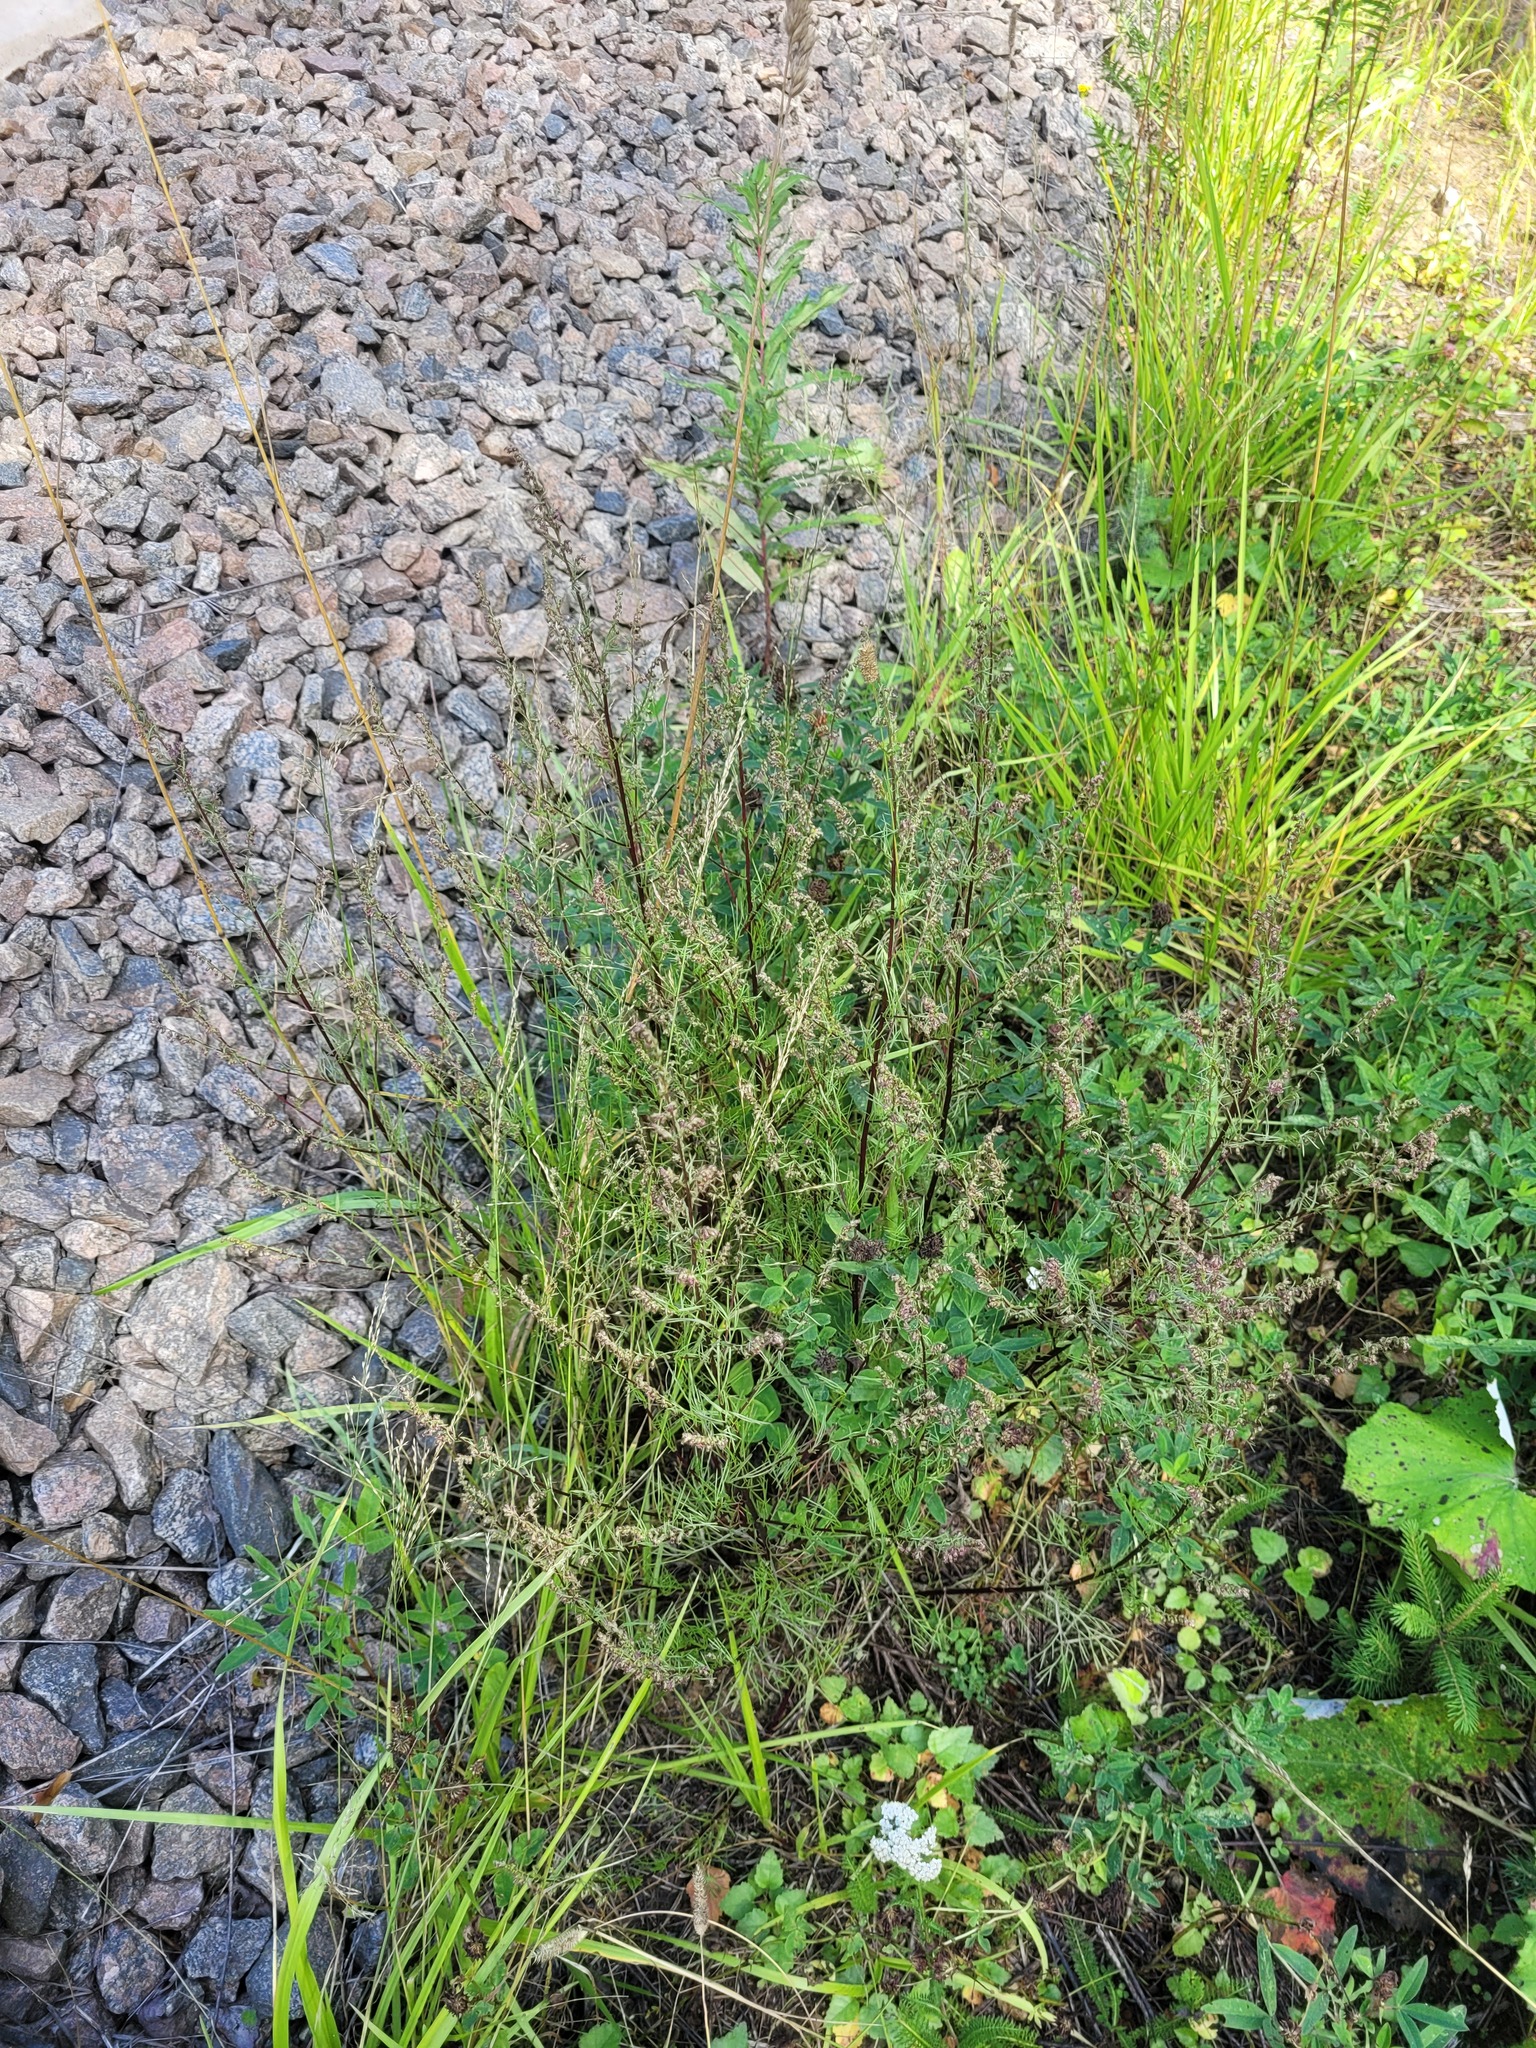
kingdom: Plantae
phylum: Tracheophyta
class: Magnoliopsida
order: Asterales
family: Asteraceae
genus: Artemisia
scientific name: Artemisia campestris
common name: Field wormwood
